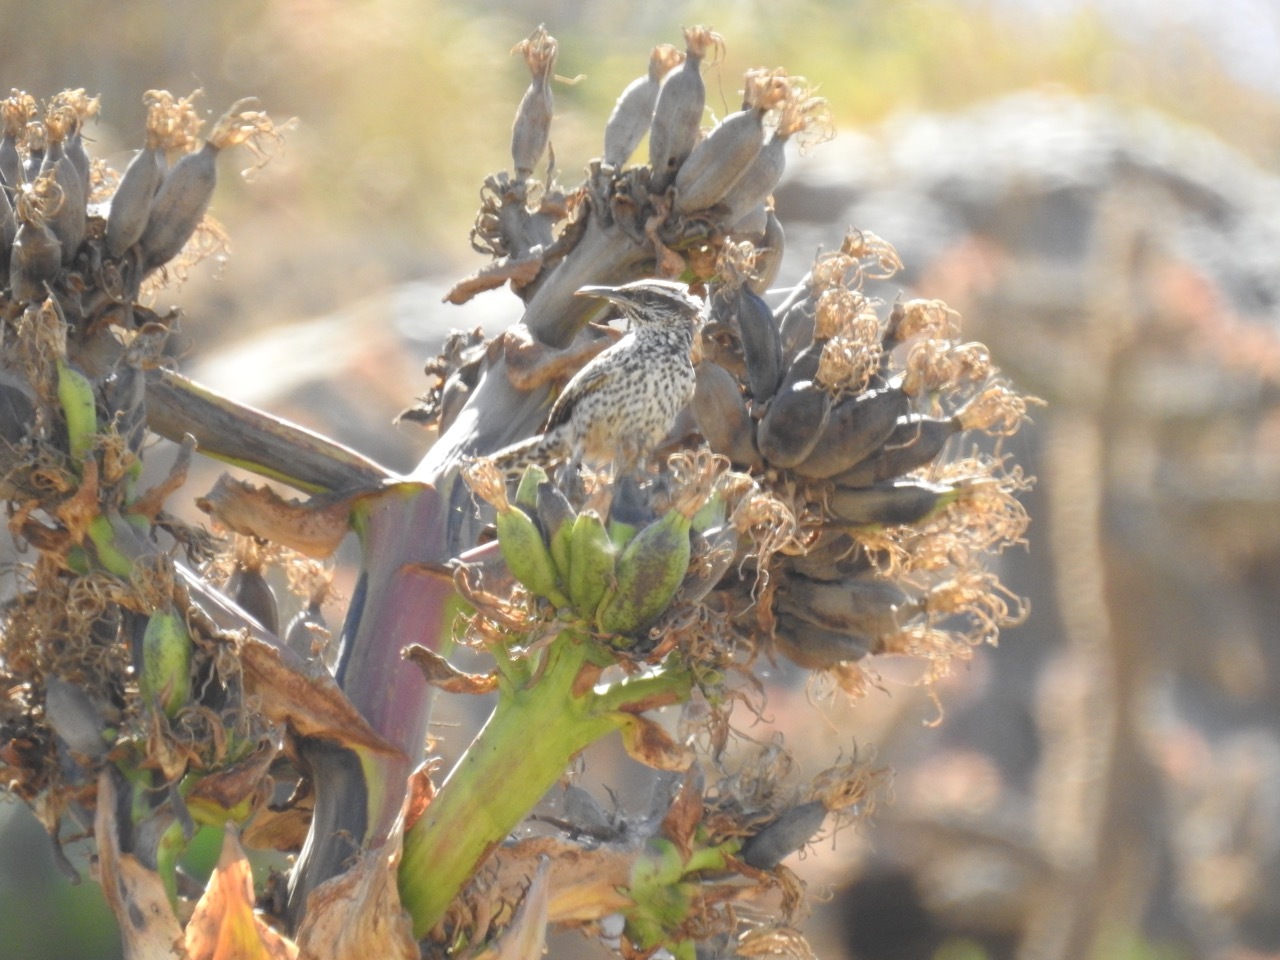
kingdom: Animalia
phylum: Chordata
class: Aves
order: Passeriformes
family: Troglodytidae
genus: Campylorhynchus
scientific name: Campylorhynchus brunneicapillus
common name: Cactus wren
